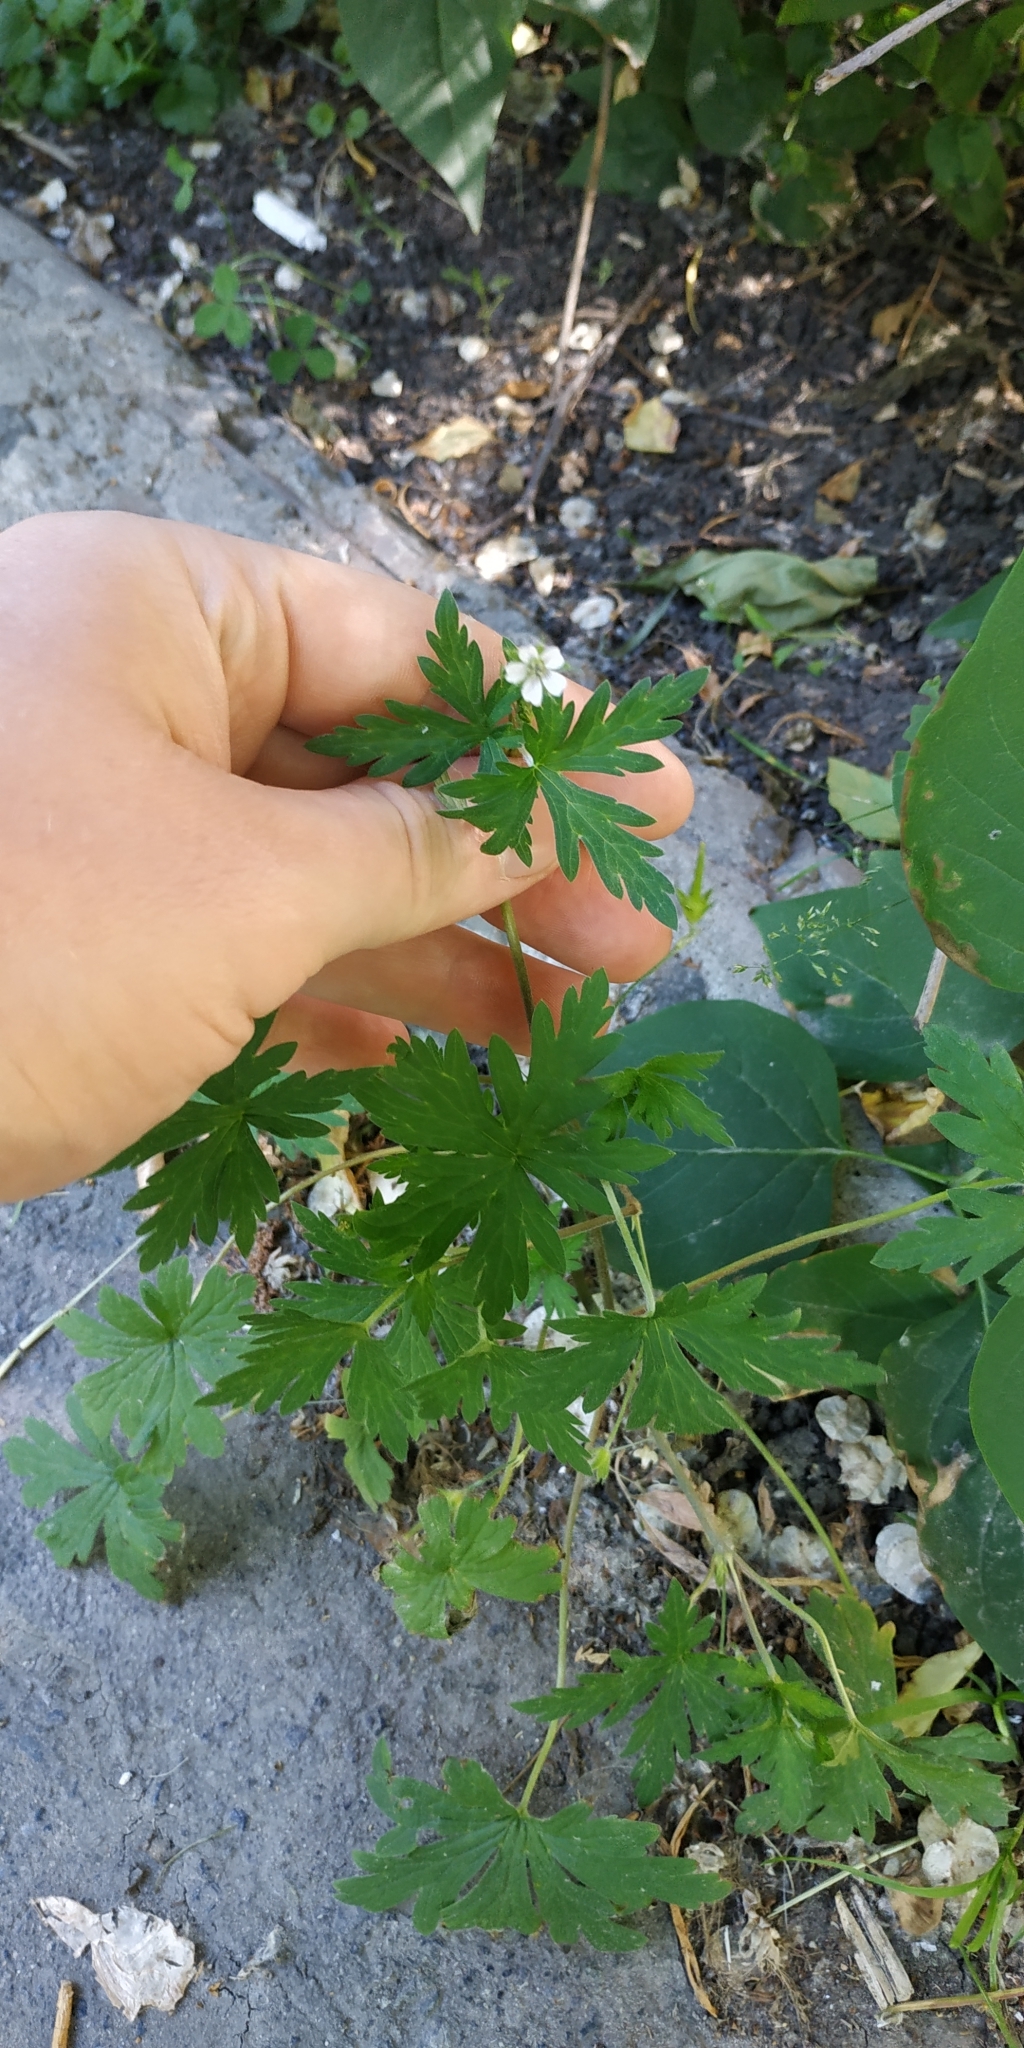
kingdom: Plantae
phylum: Tracheophyta
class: Magnoliopsida
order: Geraniales
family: Geraniaceae
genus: Geranium
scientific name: Geranium sibiricum
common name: Siberian crane's-bill
